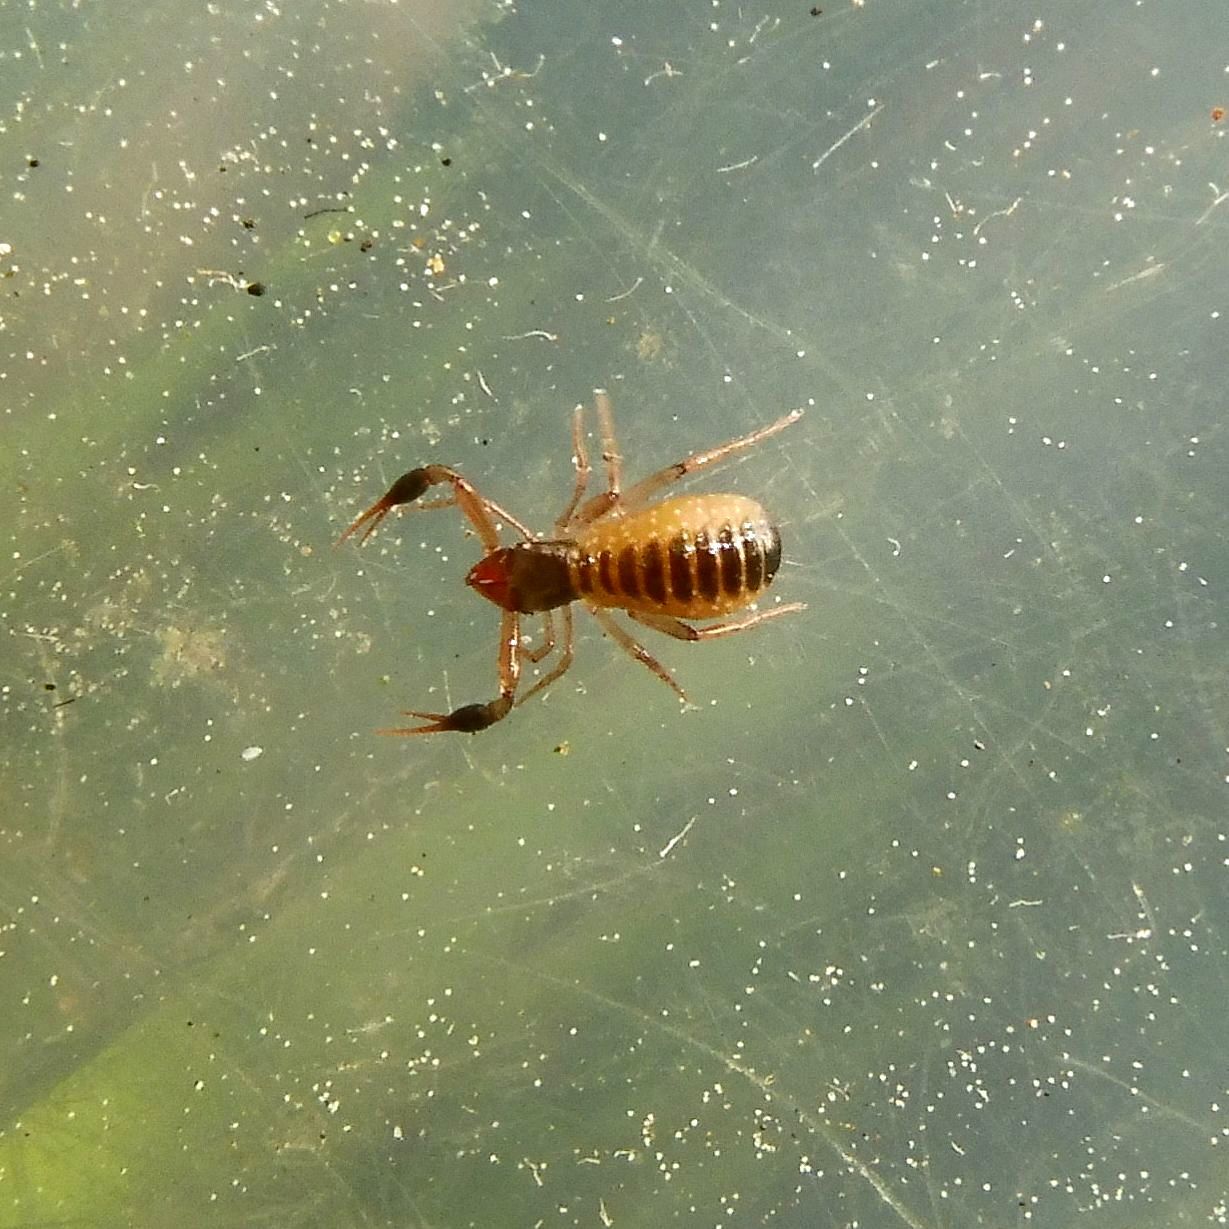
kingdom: Animalia
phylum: Arthropoda
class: Arachnida
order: Pseudoscorpiones
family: Chthoniidae
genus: Chthonius
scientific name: Chthonius tenuis
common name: Dark-clawed chthonid
